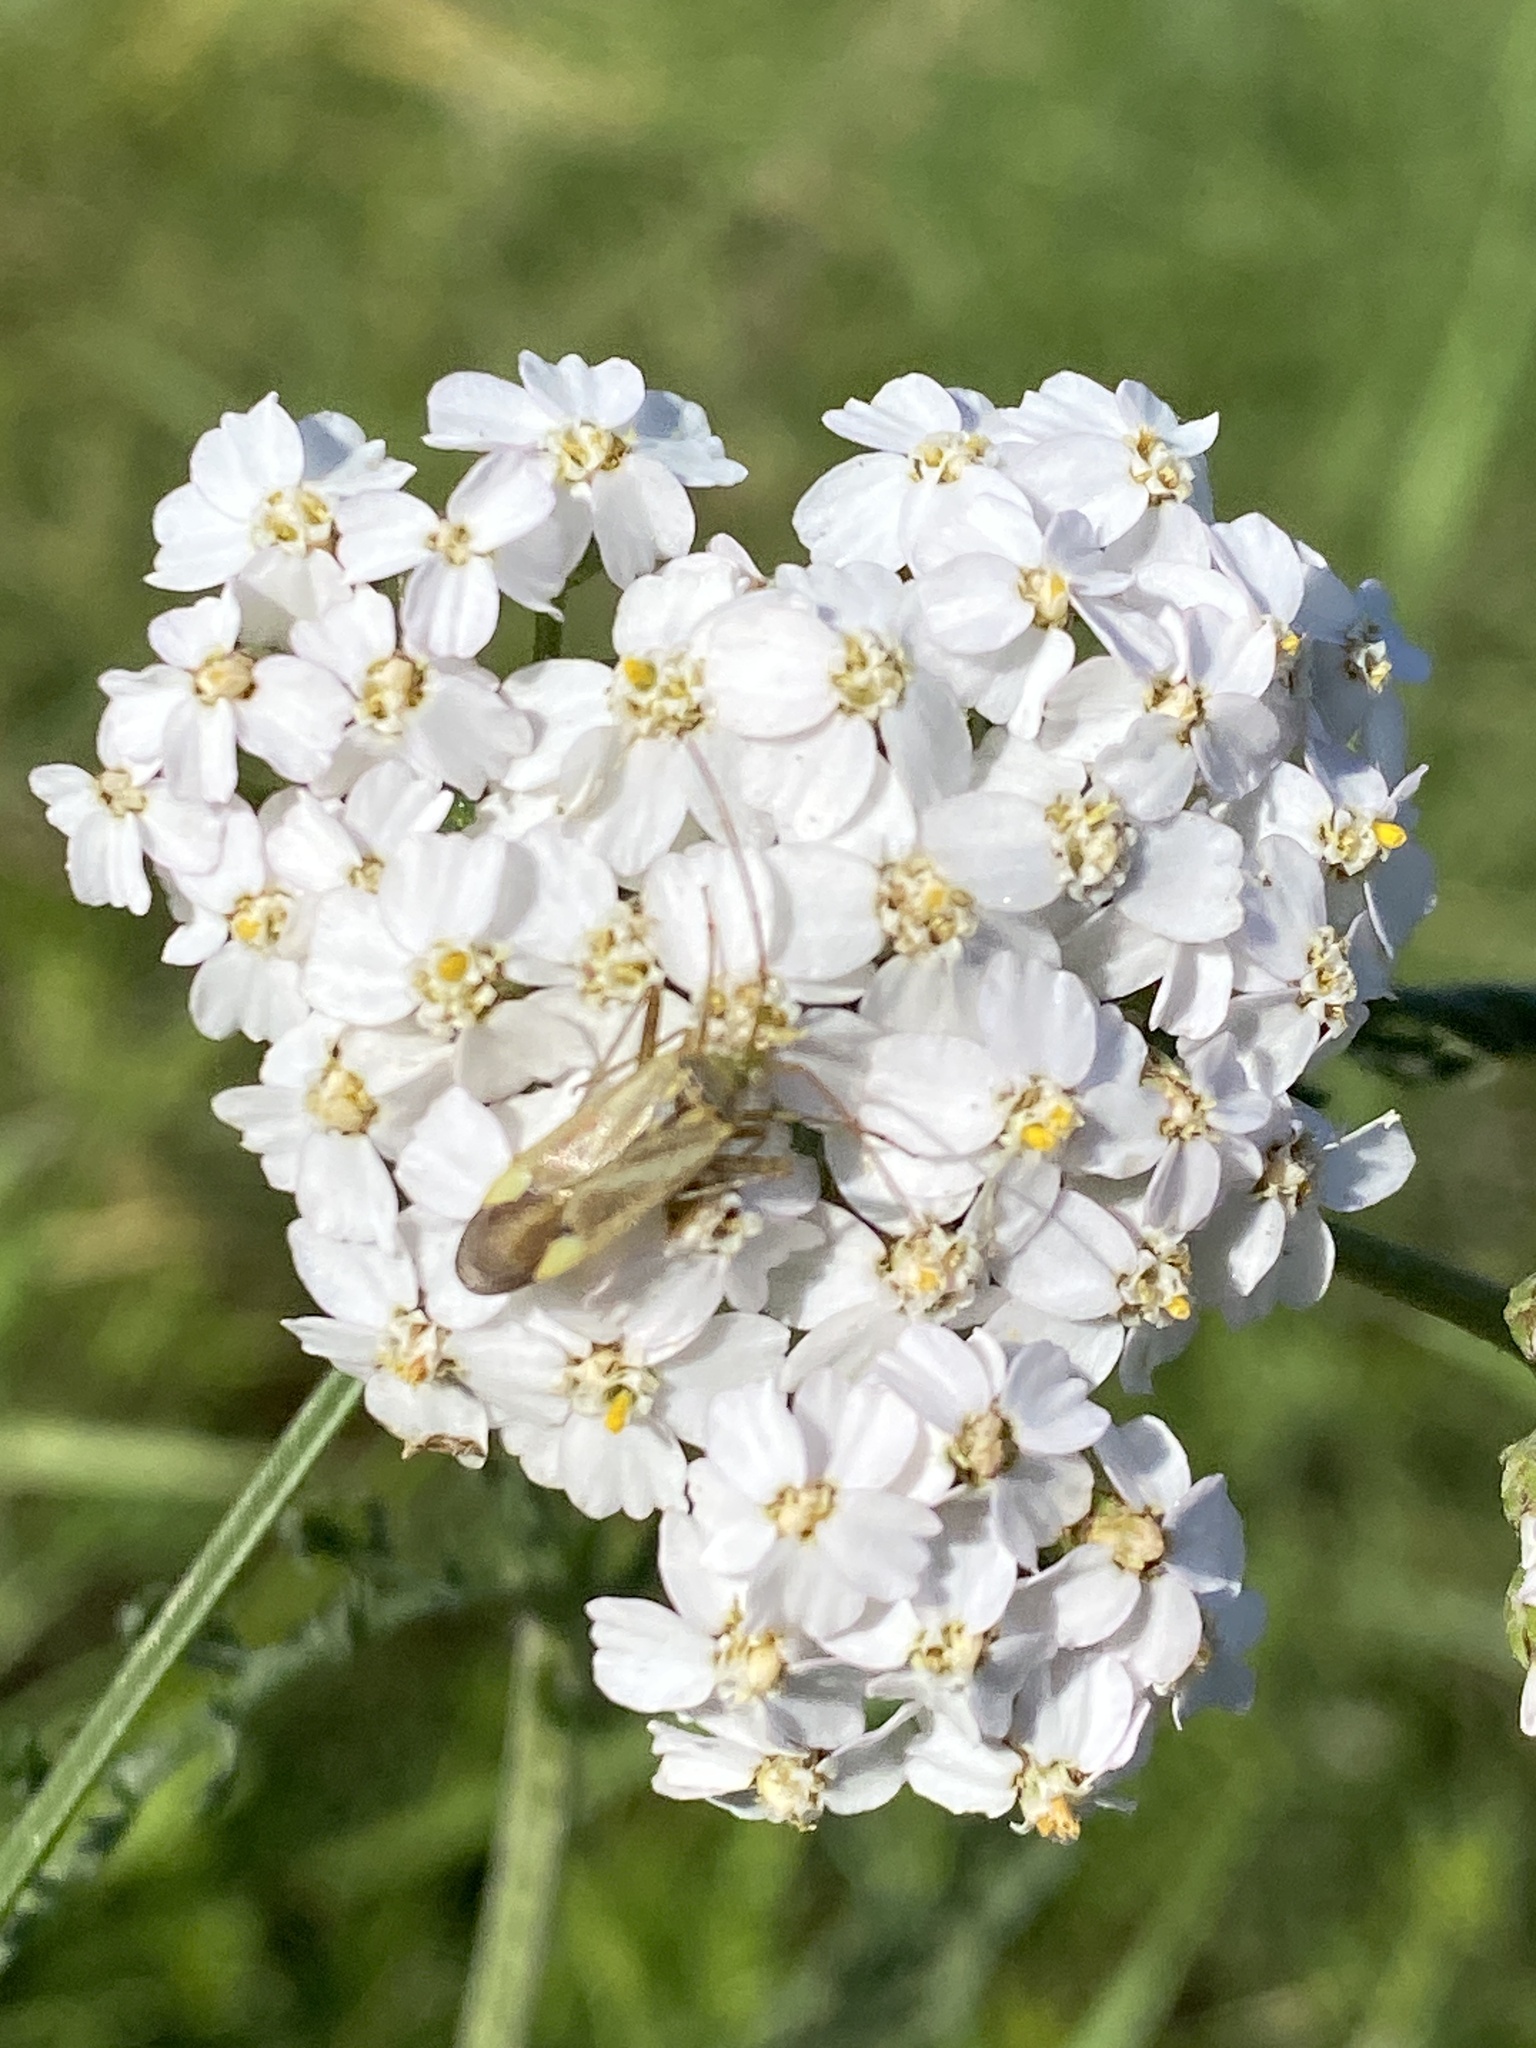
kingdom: Animalia
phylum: Arthropoda
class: Insecta
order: Hemiptera
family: Miridae
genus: Adelphocoris
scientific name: Adelphocoris lineolatus
